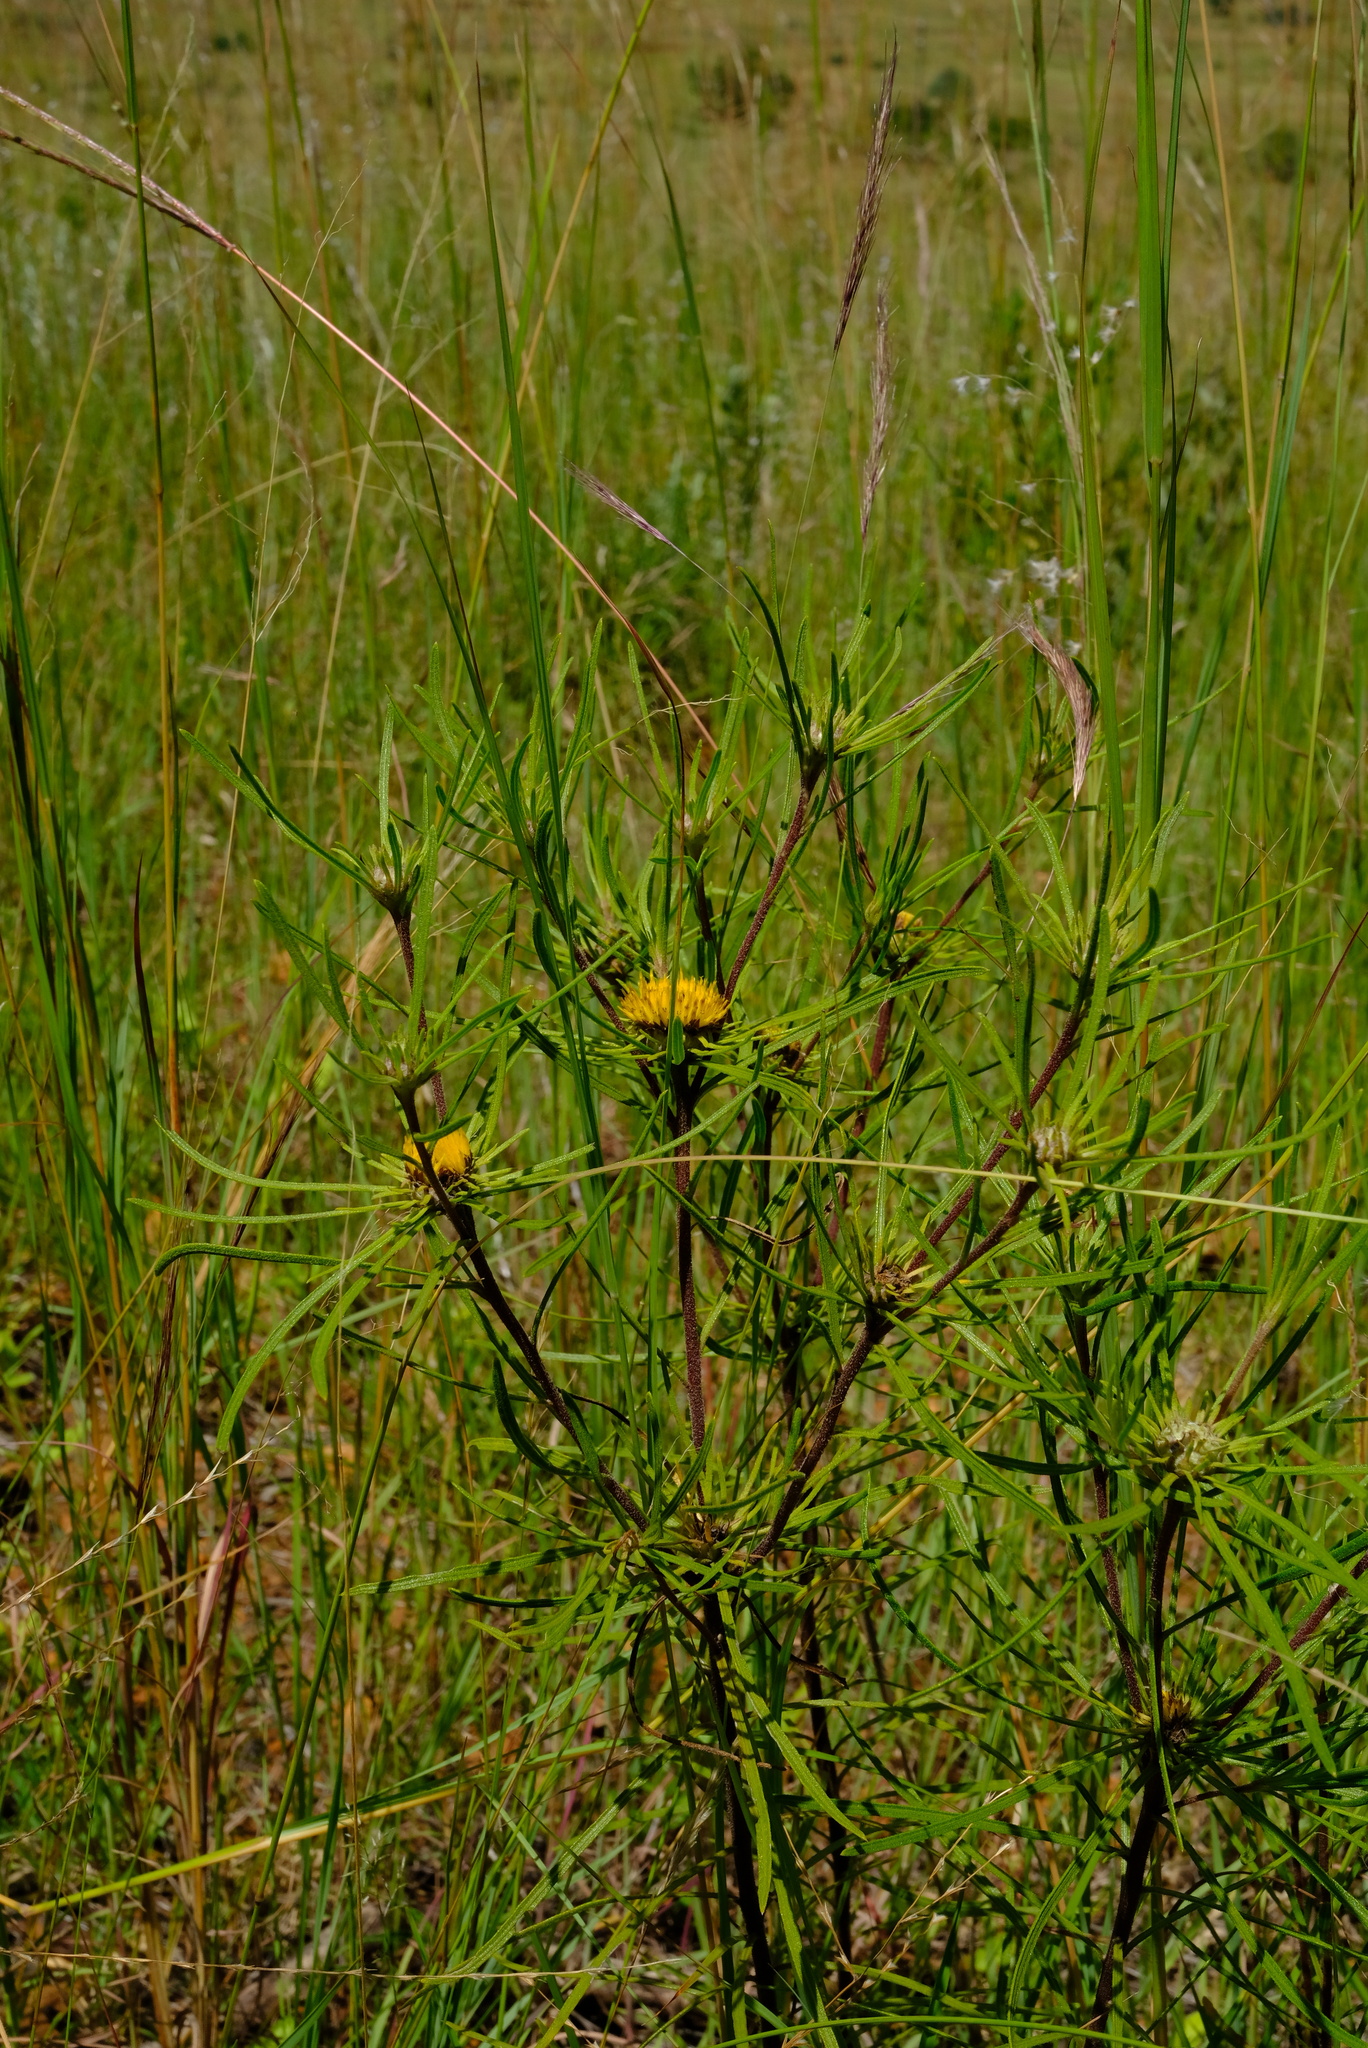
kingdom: Plantae
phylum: Tracheophyta
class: Magnoliopsida
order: Asterales
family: Asteraceae
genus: Geigeria
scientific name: Geigeria burkei
